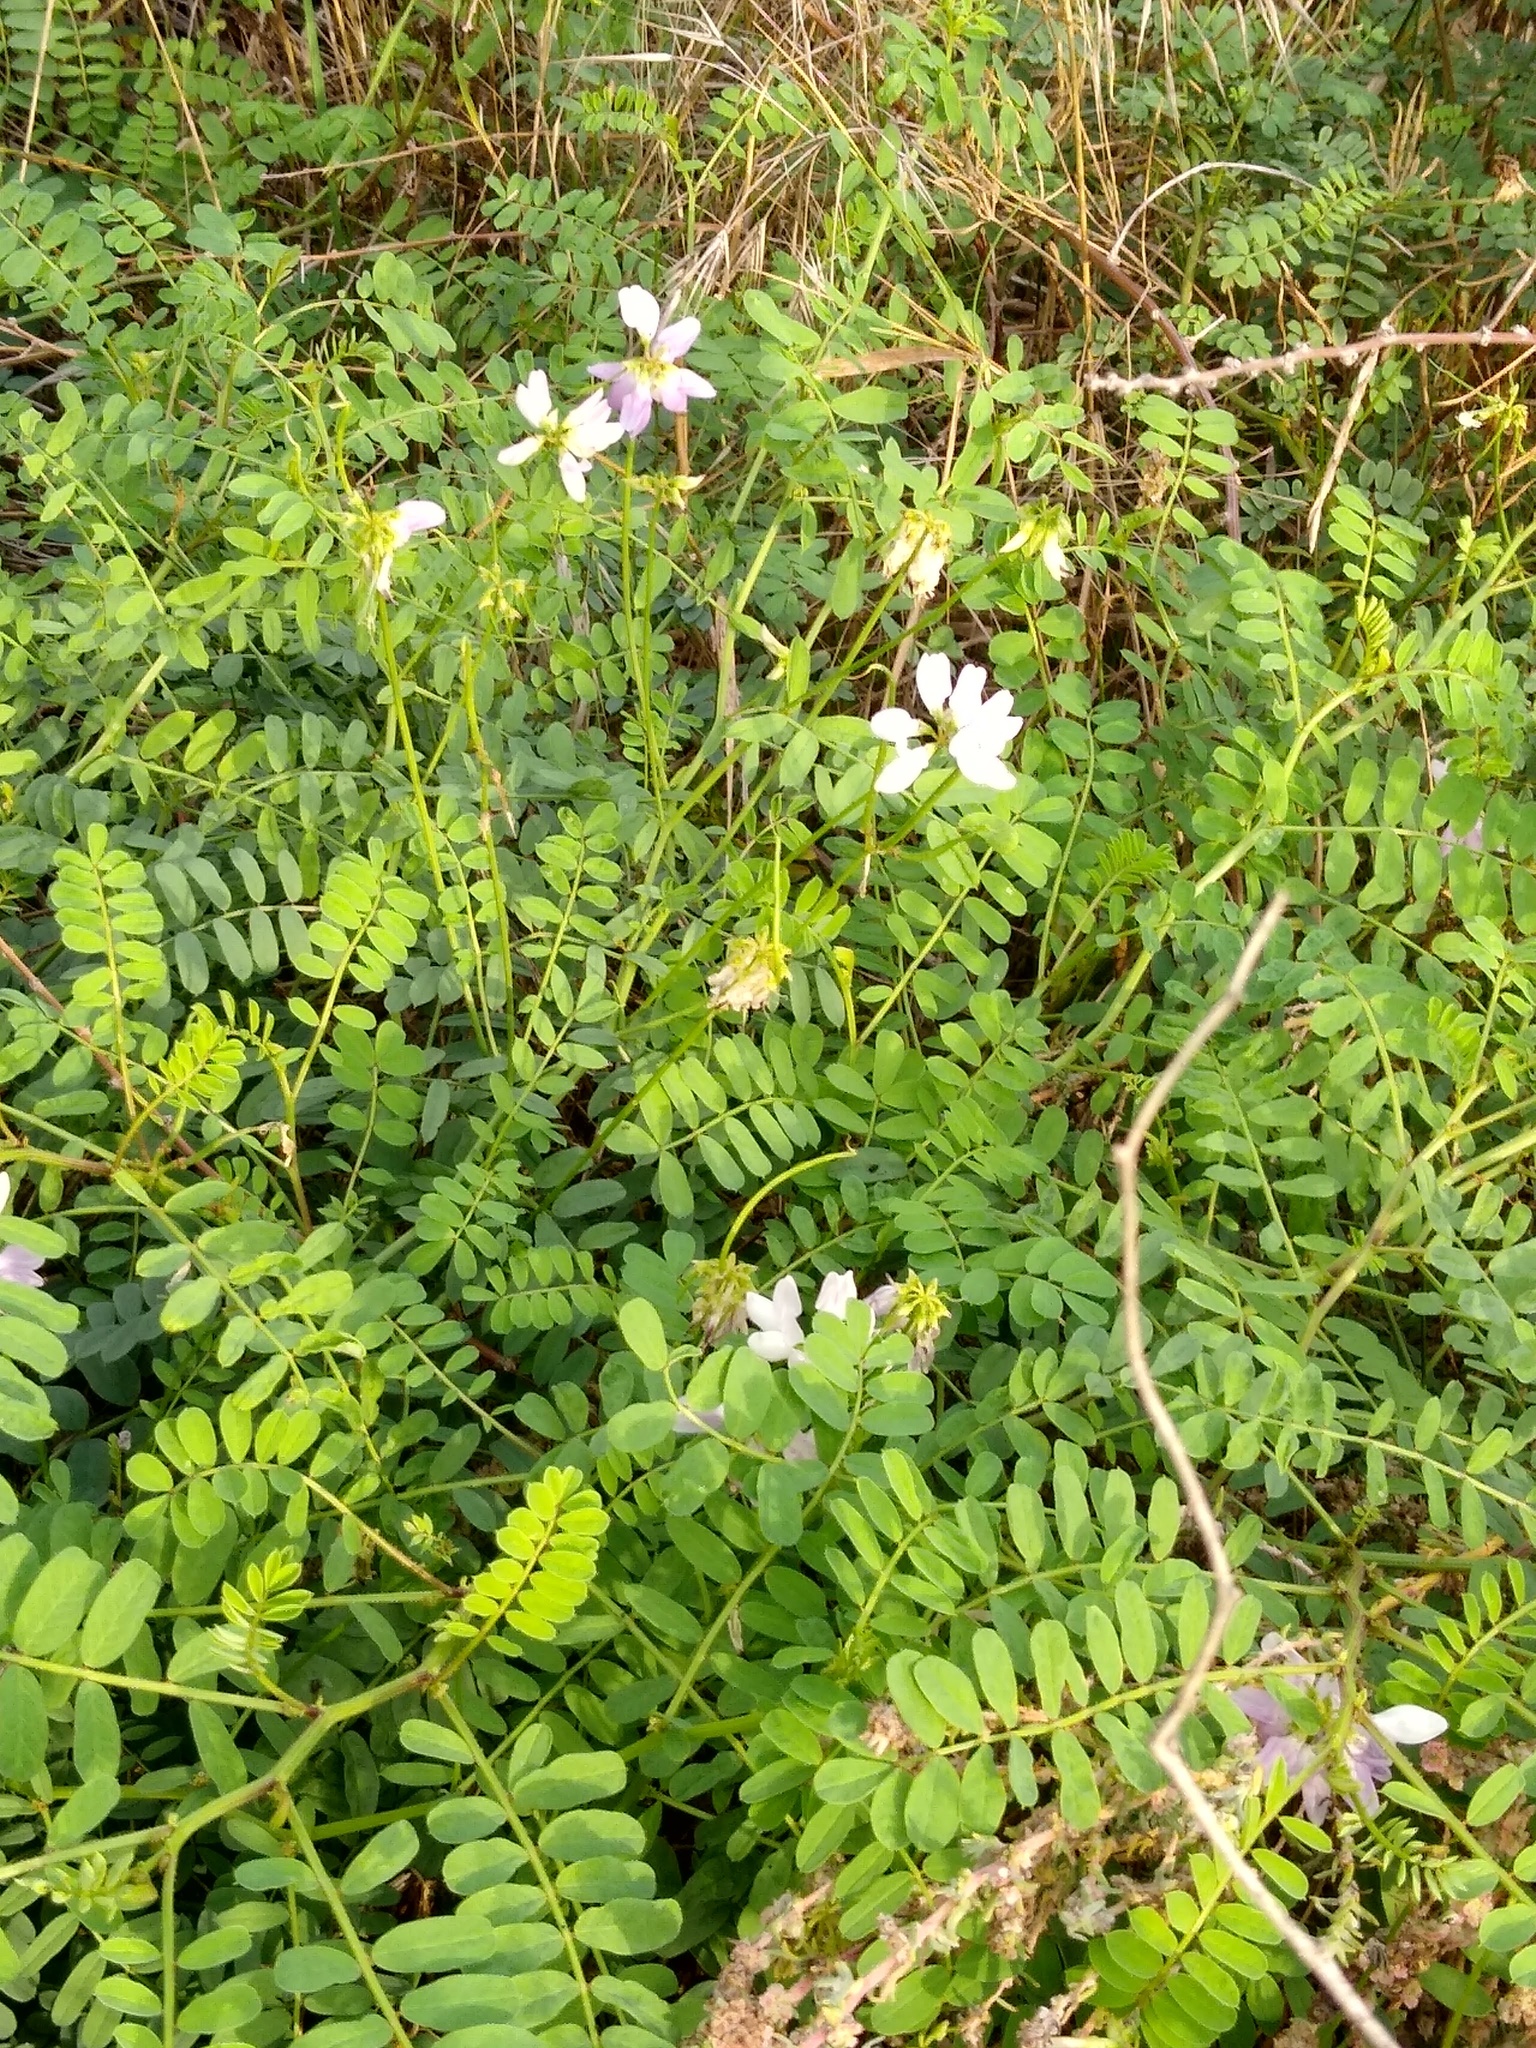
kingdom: Plantae
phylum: Tracheophyta
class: Magnoliopsida
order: Fabales
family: Fabaceae
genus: Coronilla
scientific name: Coronilla varia
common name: Crownvetch
